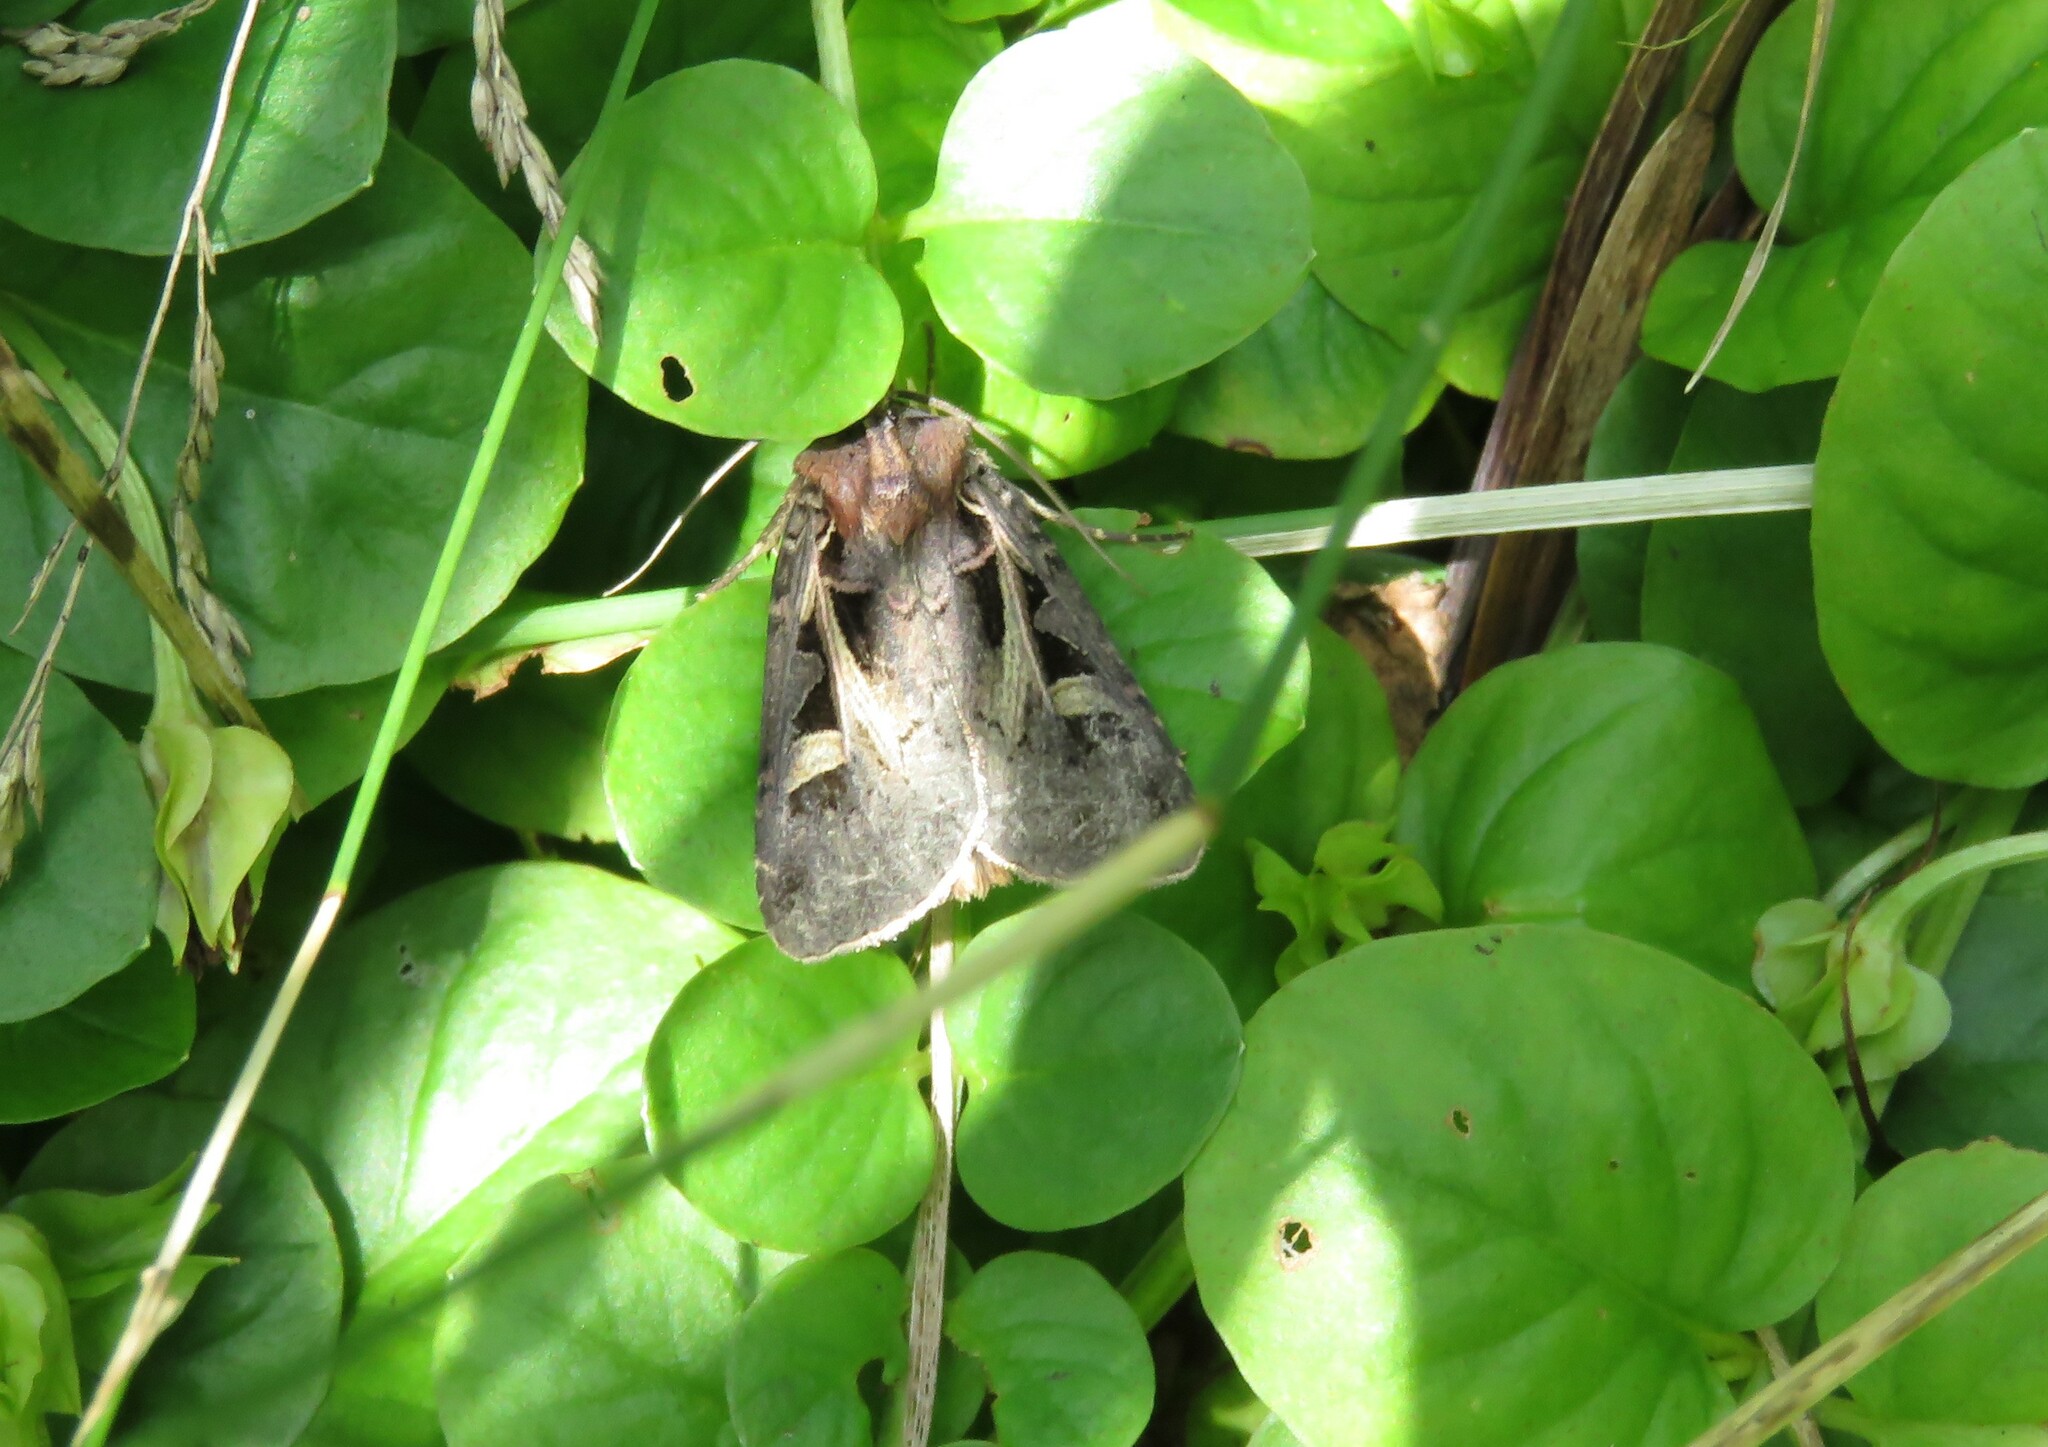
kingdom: Animalia
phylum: Arthropoda
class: Insecta
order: Lepidoptera
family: Noctuidae
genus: Feltia
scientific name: Feltia herilis
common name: Master's dart
